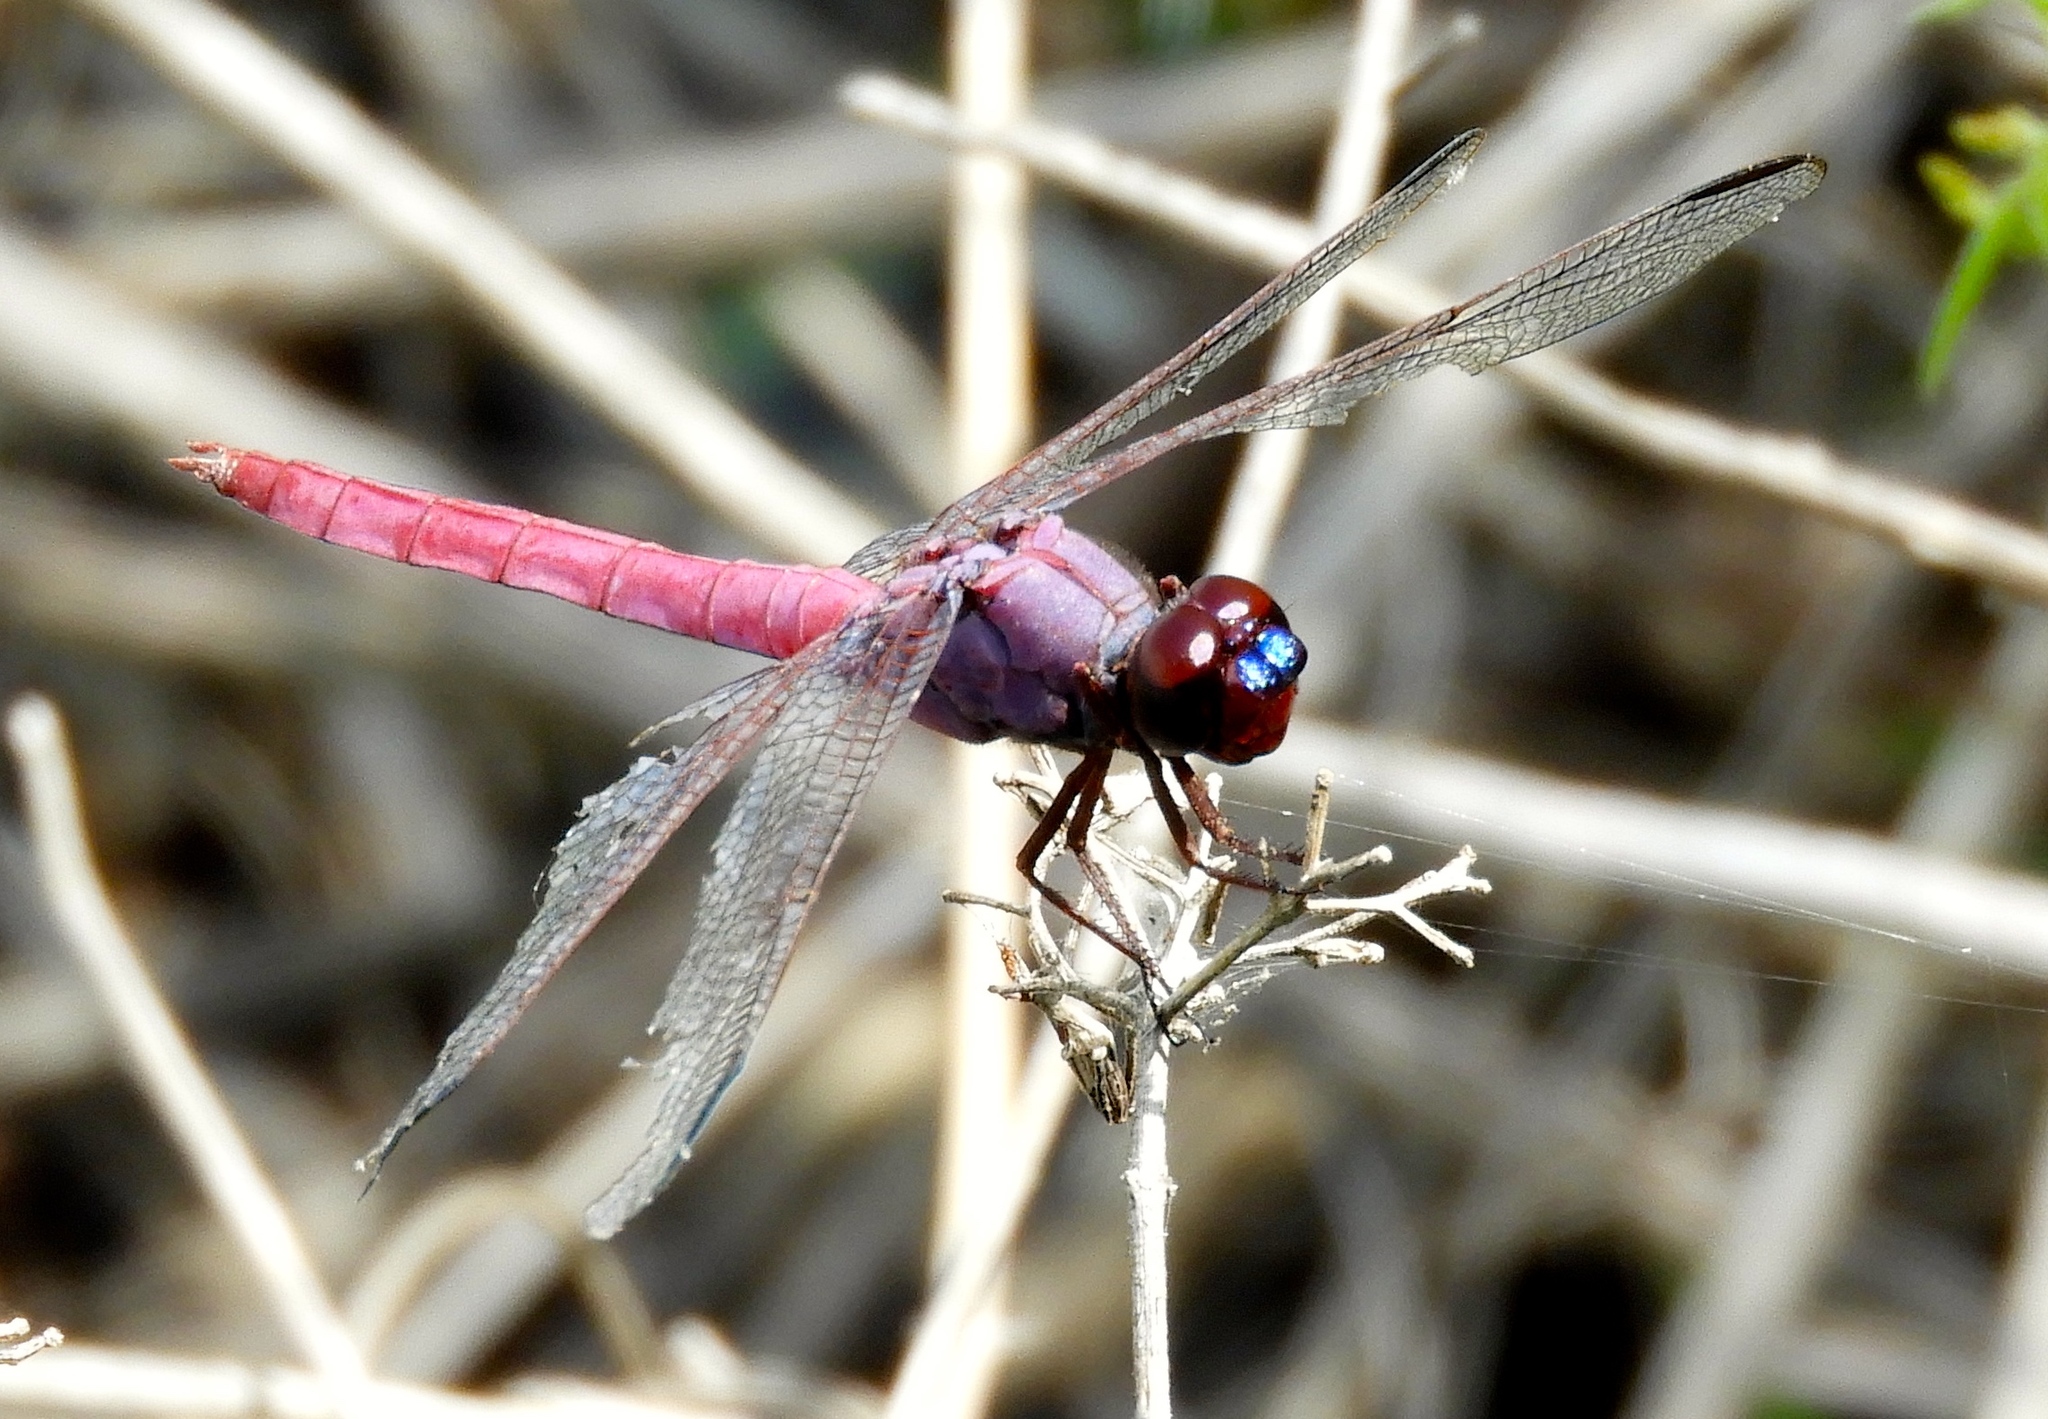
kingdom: Animalia
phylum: Arthropoda
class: Insecta
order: Odonata
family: Libellulidae
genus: Orthemis
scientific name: Orthemis ferruginea
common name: Roseate skimmer
